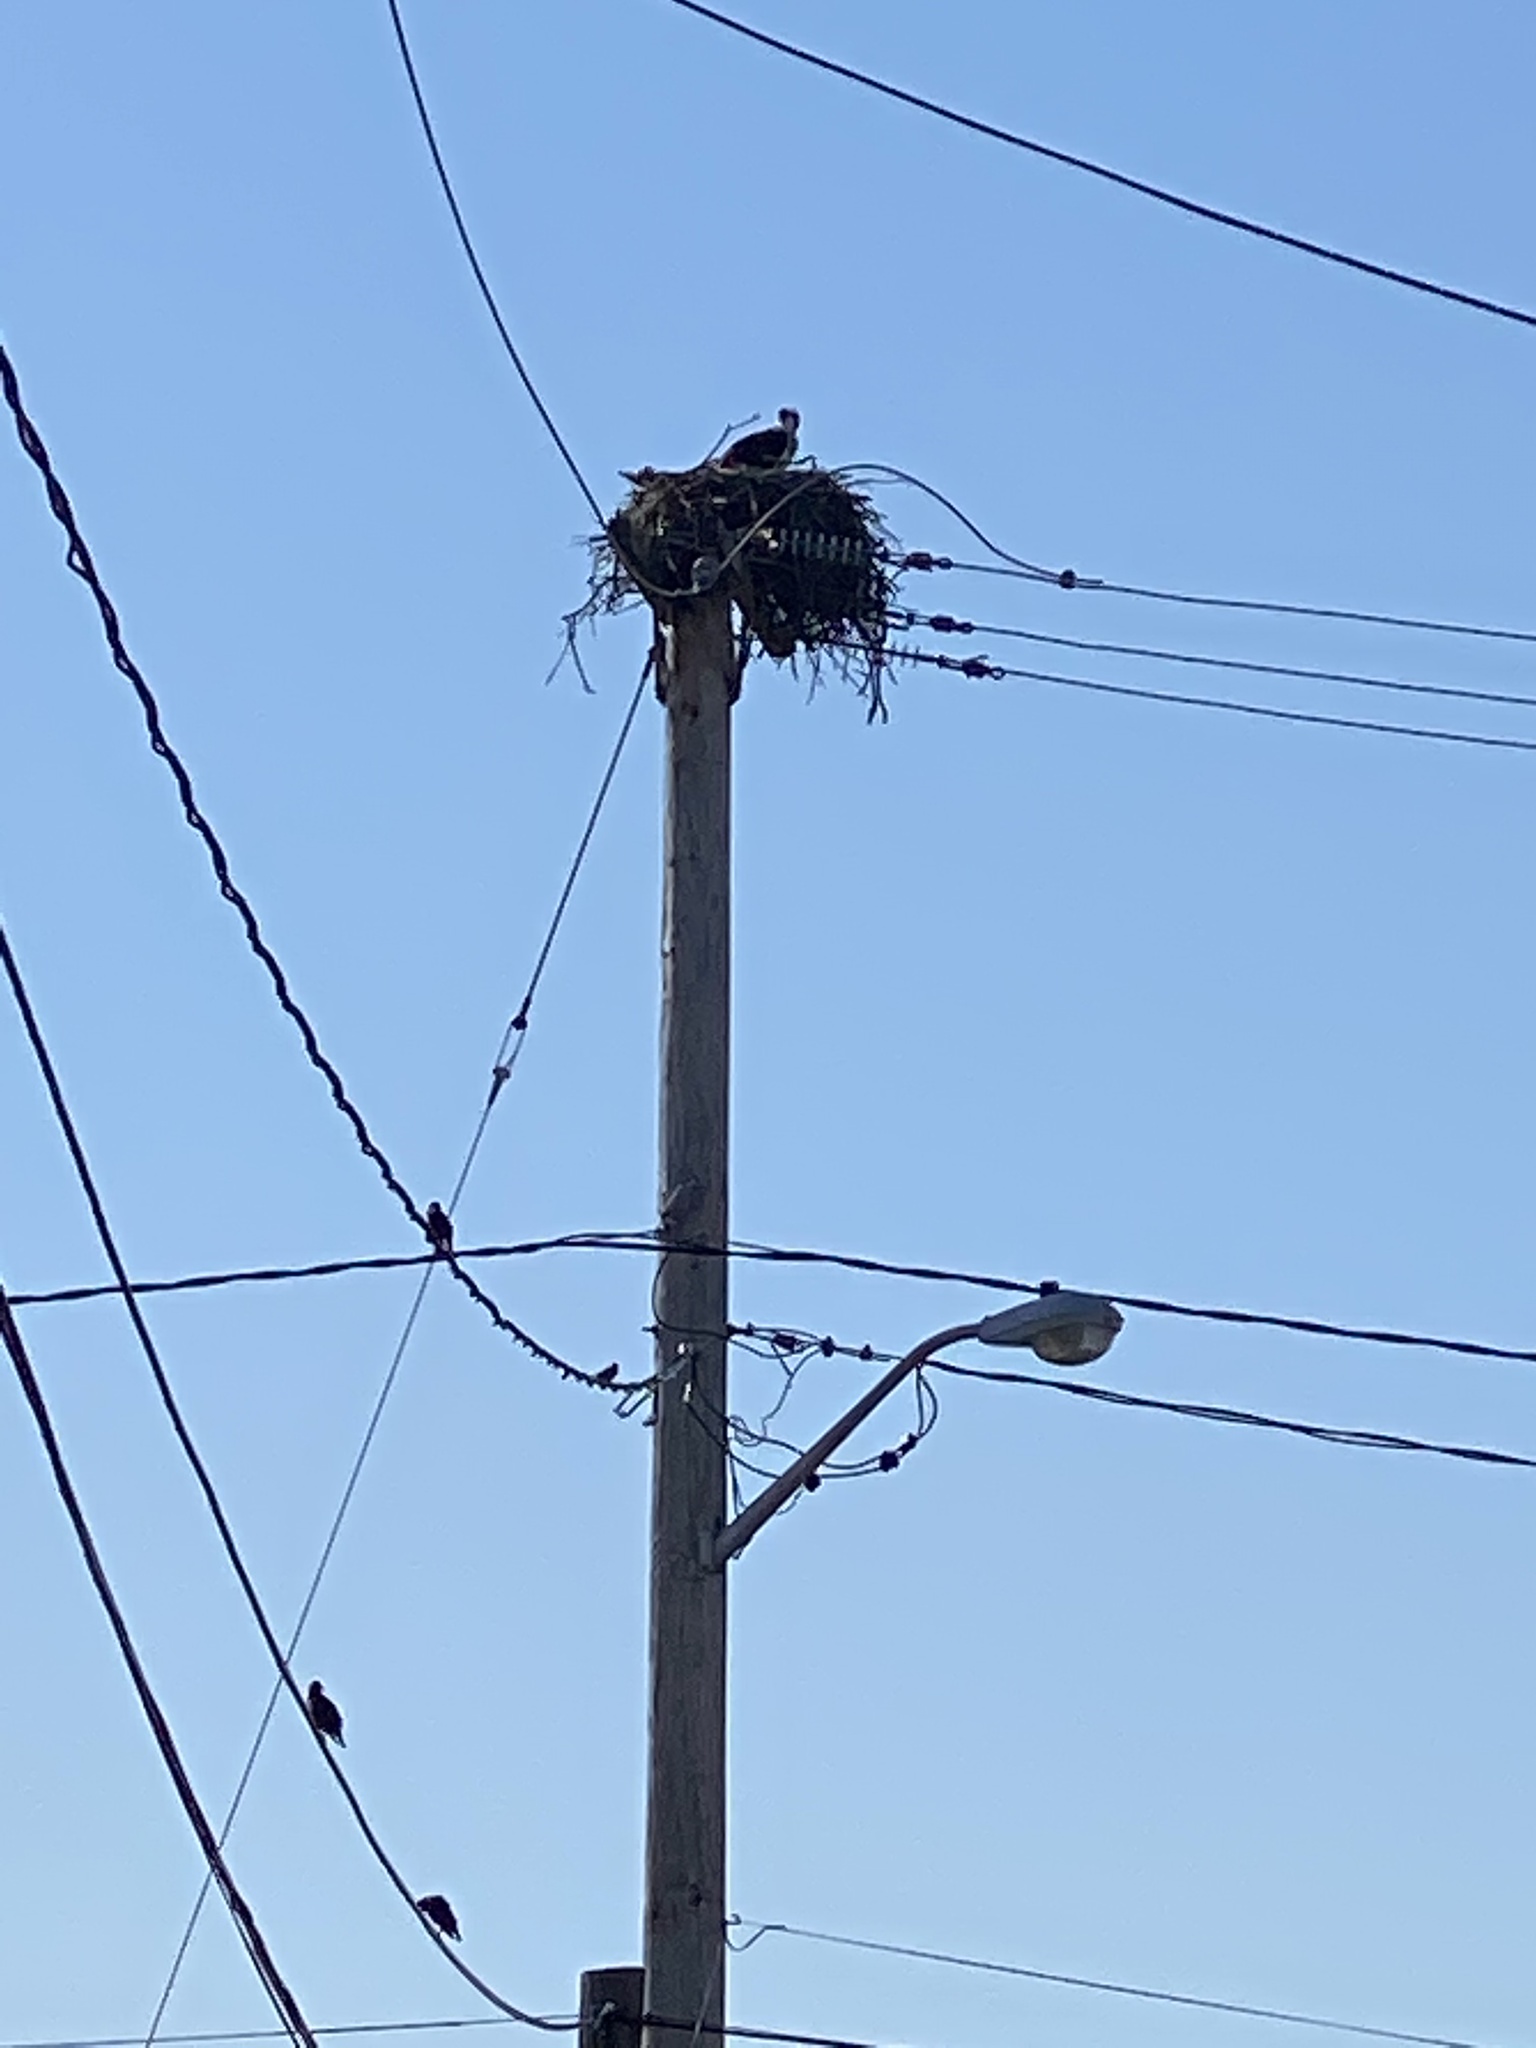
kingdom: Animalia
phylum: Chordata
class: Aves
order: Accipitriformes
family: Pandionidae
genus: Pandion
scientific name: Pandion haliaetus
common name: Osprey
